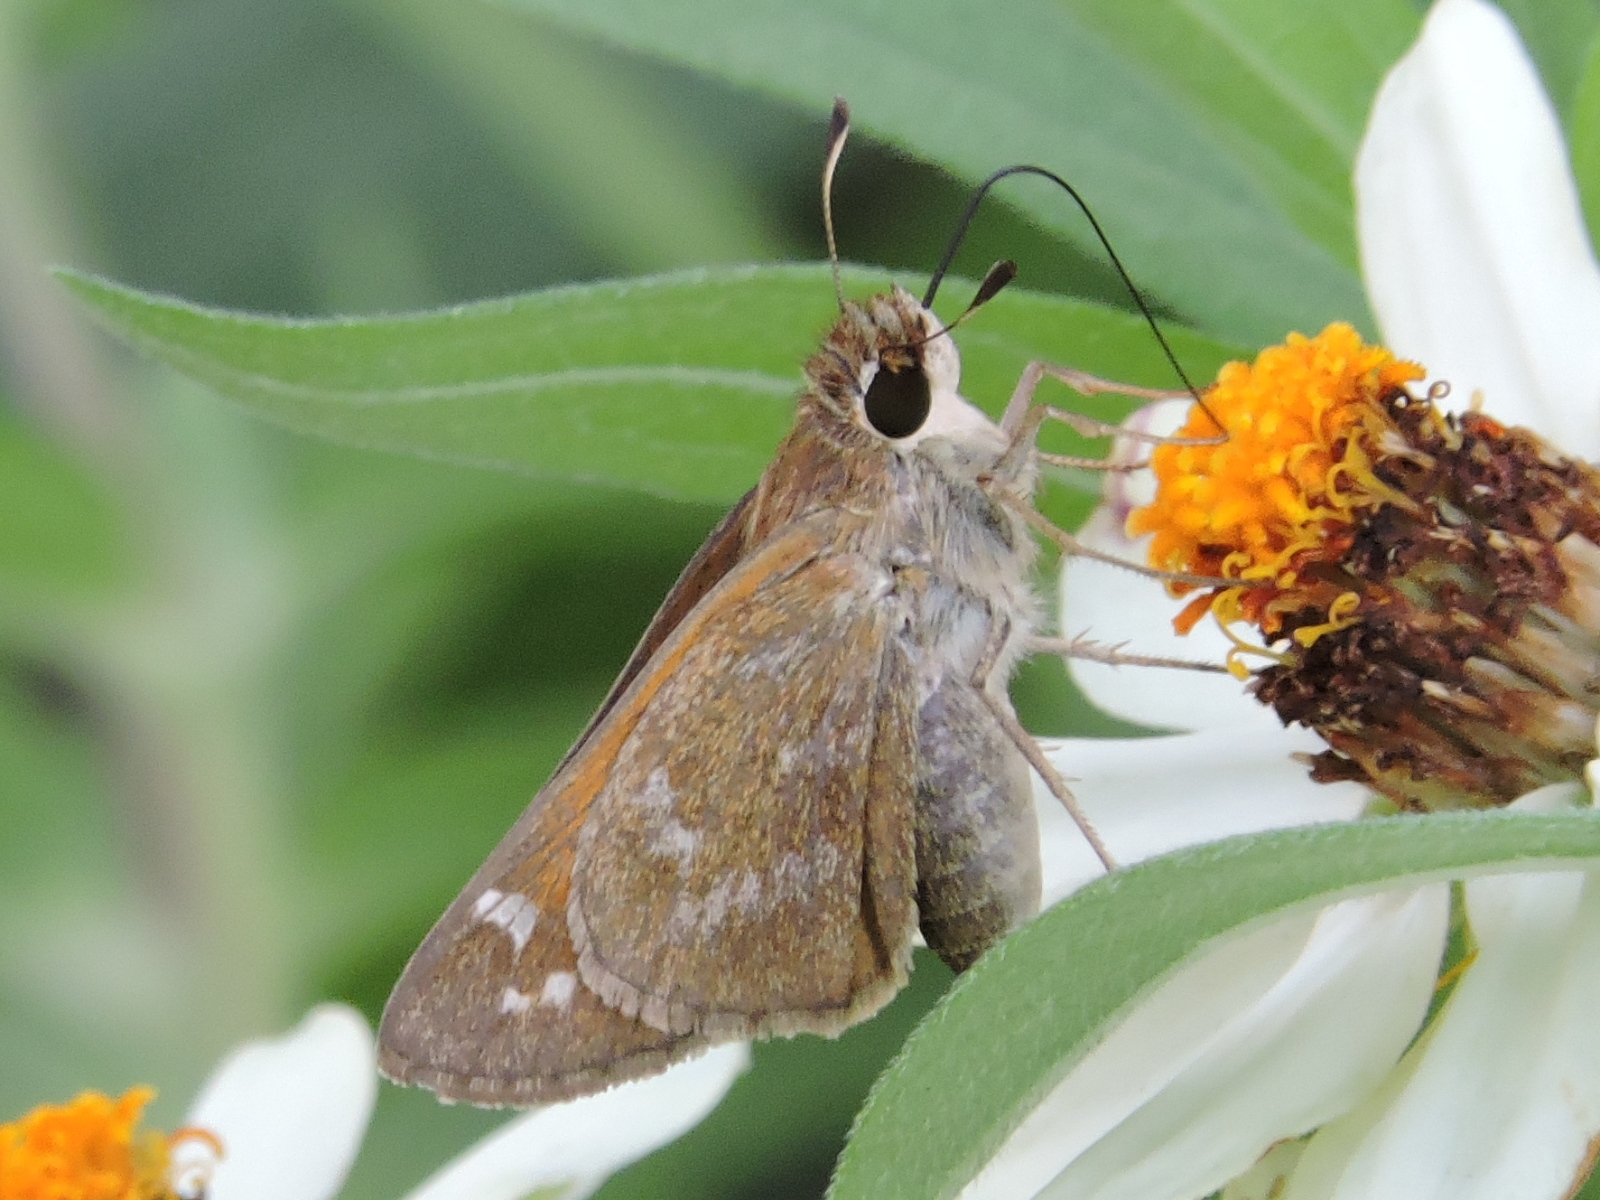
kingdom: Animalia
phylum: Arthropoda
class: Insecta
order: Lepidoptera
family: Hesperiidae
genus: Atalopedes
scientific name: Atalopedes
